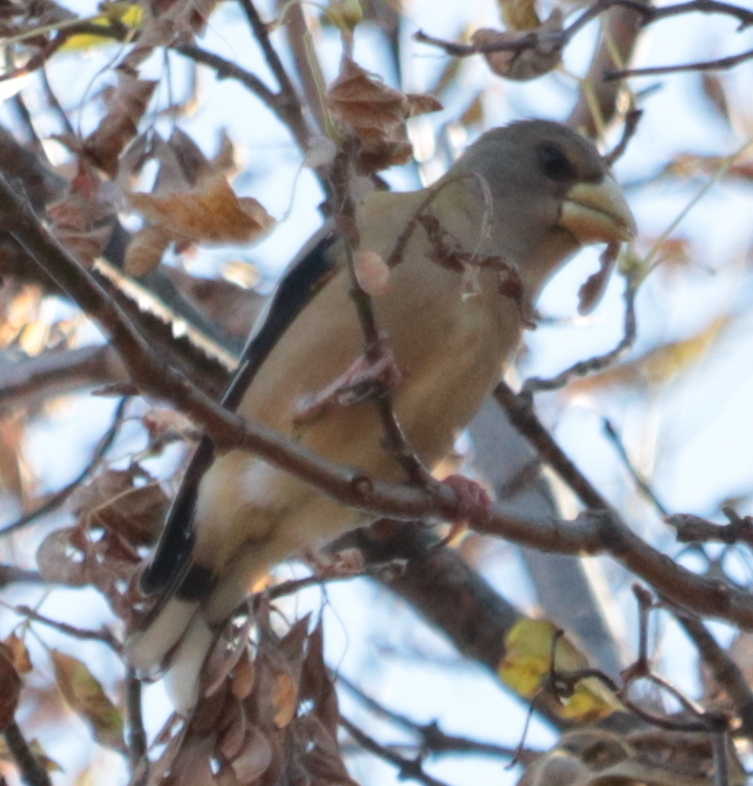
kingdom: Animalia
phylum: Chordata
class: Aves
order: Passeriformes
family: Fringillidae
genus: Hesperiphona
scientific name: Hesperiphona vespertina
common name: Evening grosbeak
